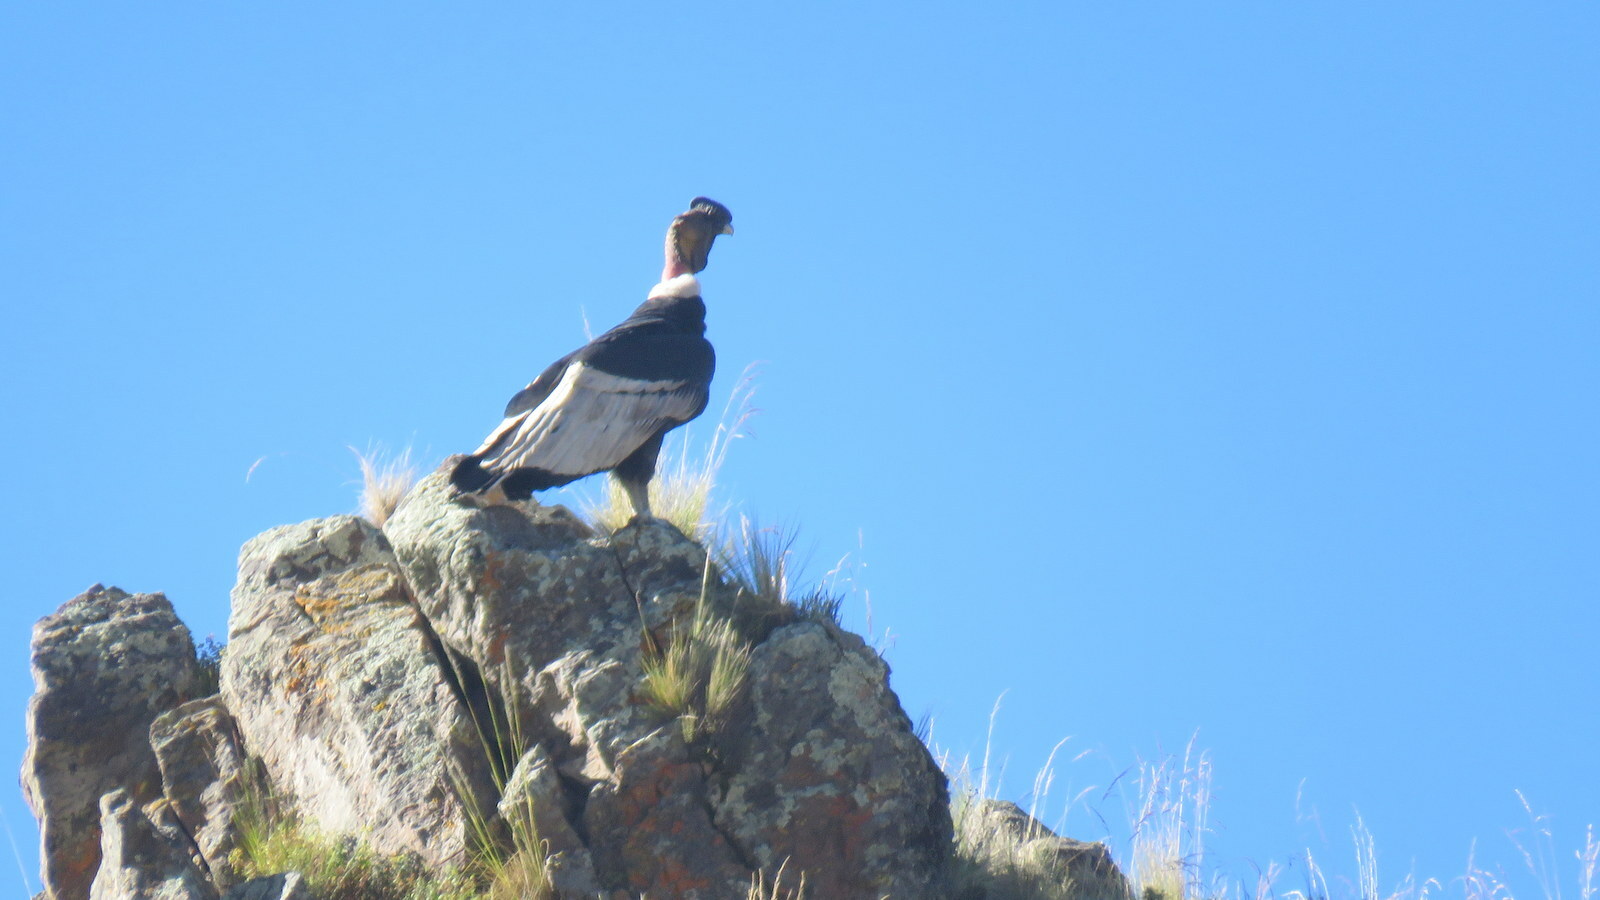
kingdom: Animalia
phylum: Chordata
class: Aves
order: Accipitriformes
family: Cathartidae
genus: Vultur
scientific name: Vultur gryphus
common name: Andean condor
